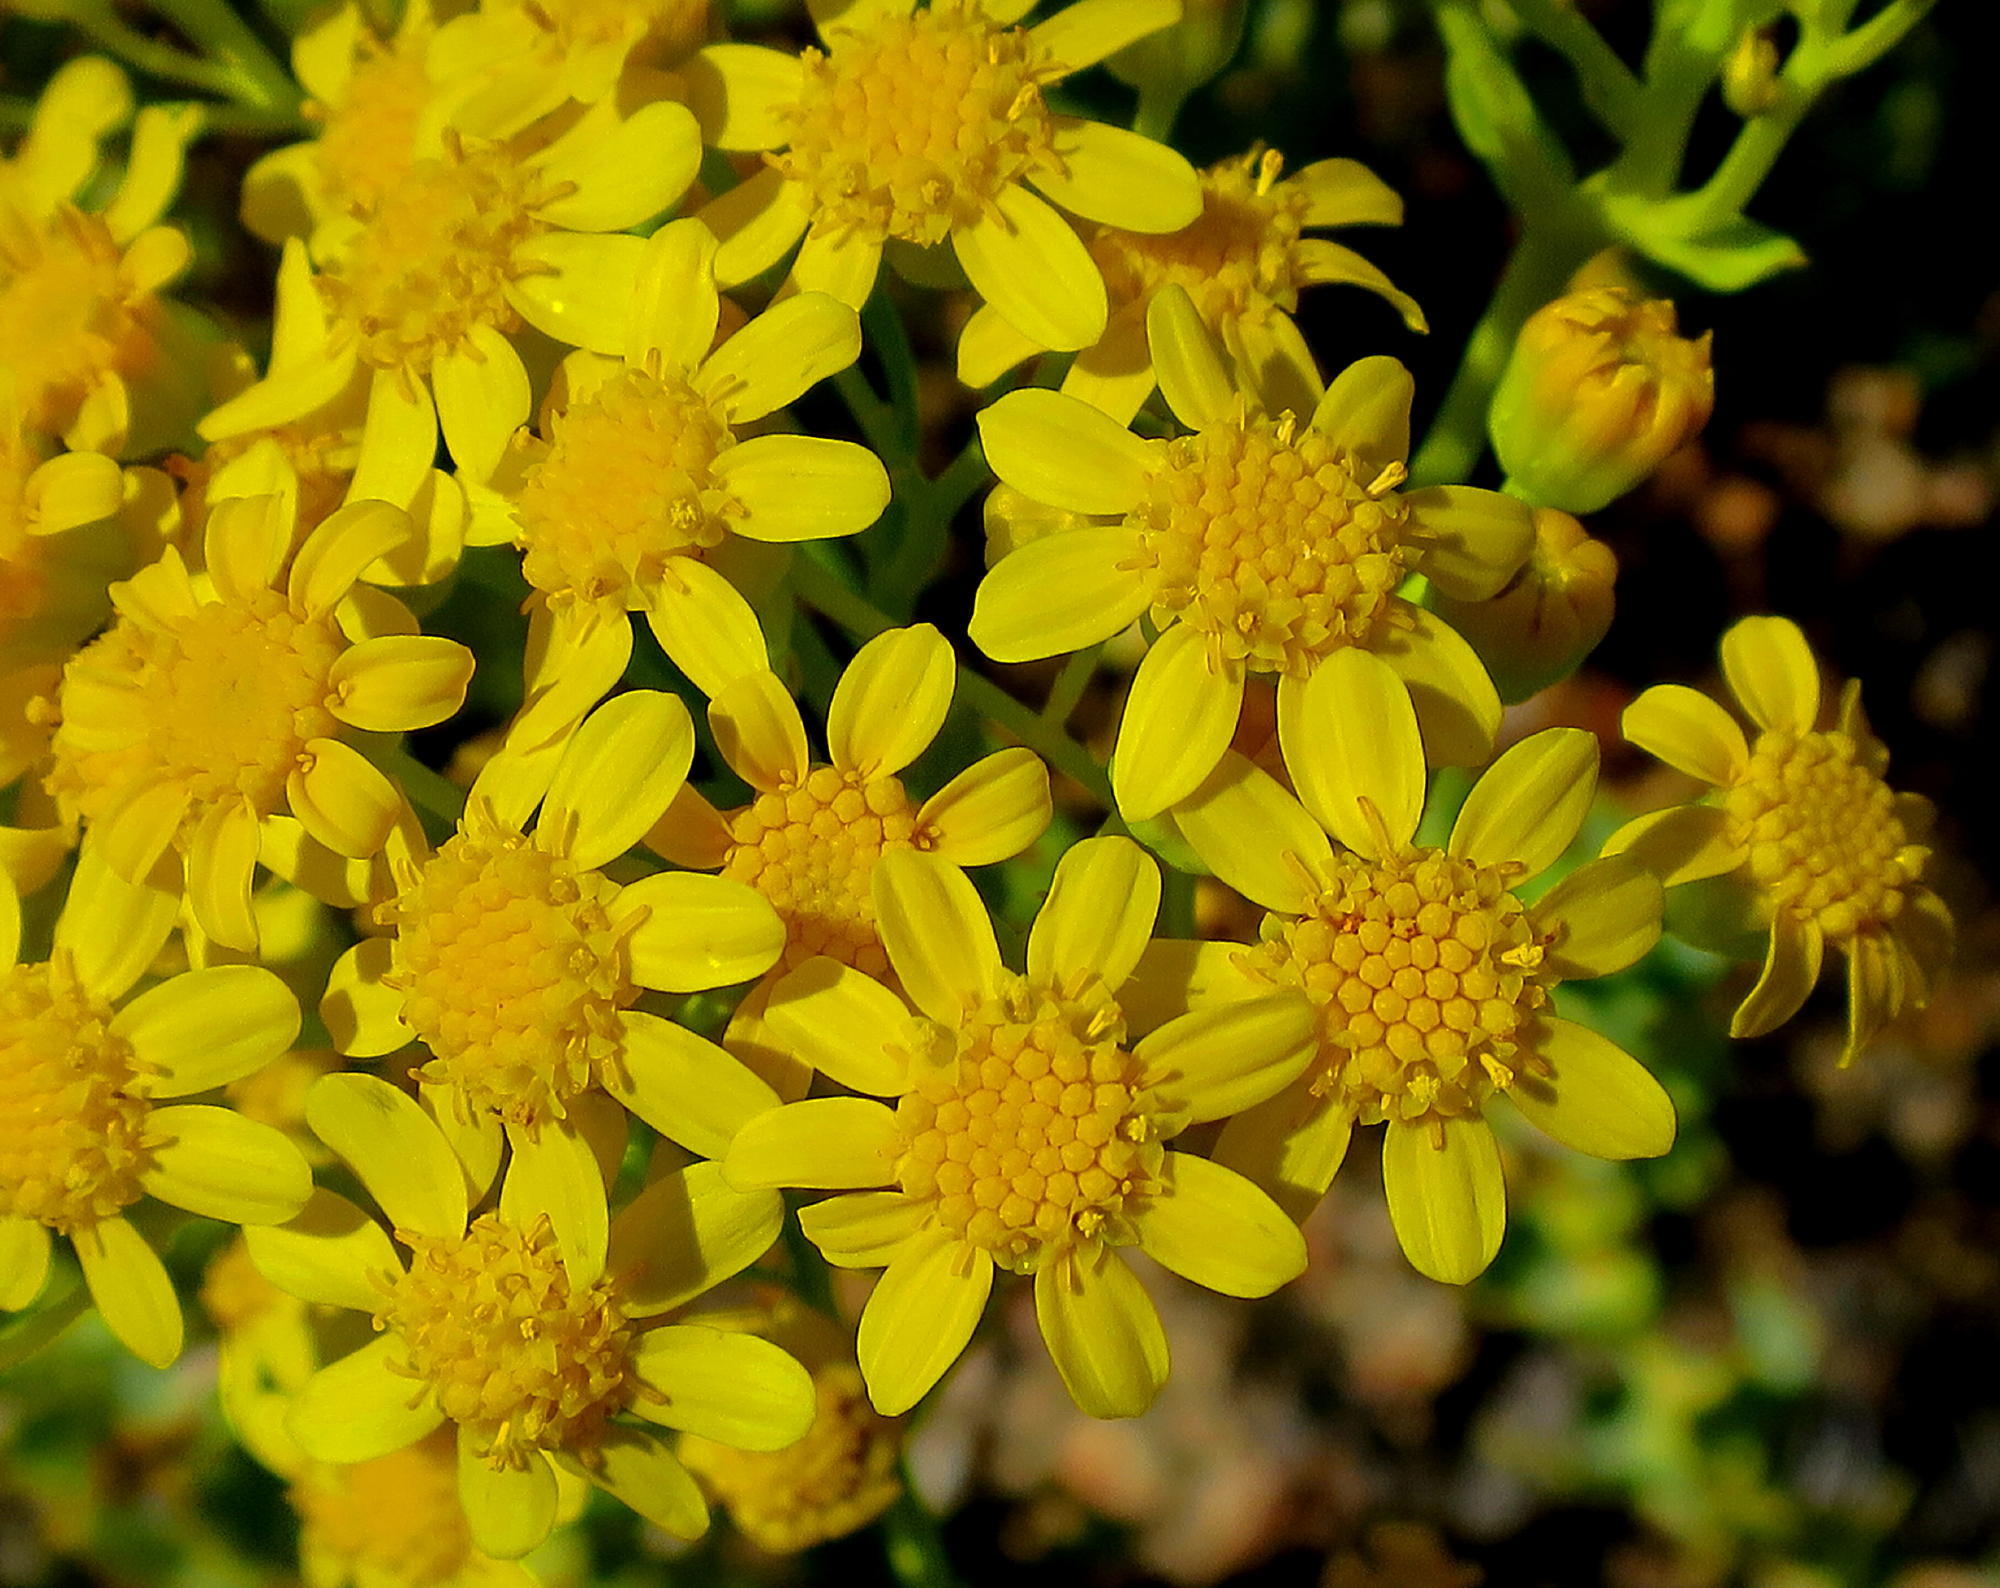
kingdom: Plantae
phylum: Tracheophyta
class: Magnoliopsida
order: Asterales
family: Asteraceae
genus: Othonna
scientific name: Othonna parviflora
